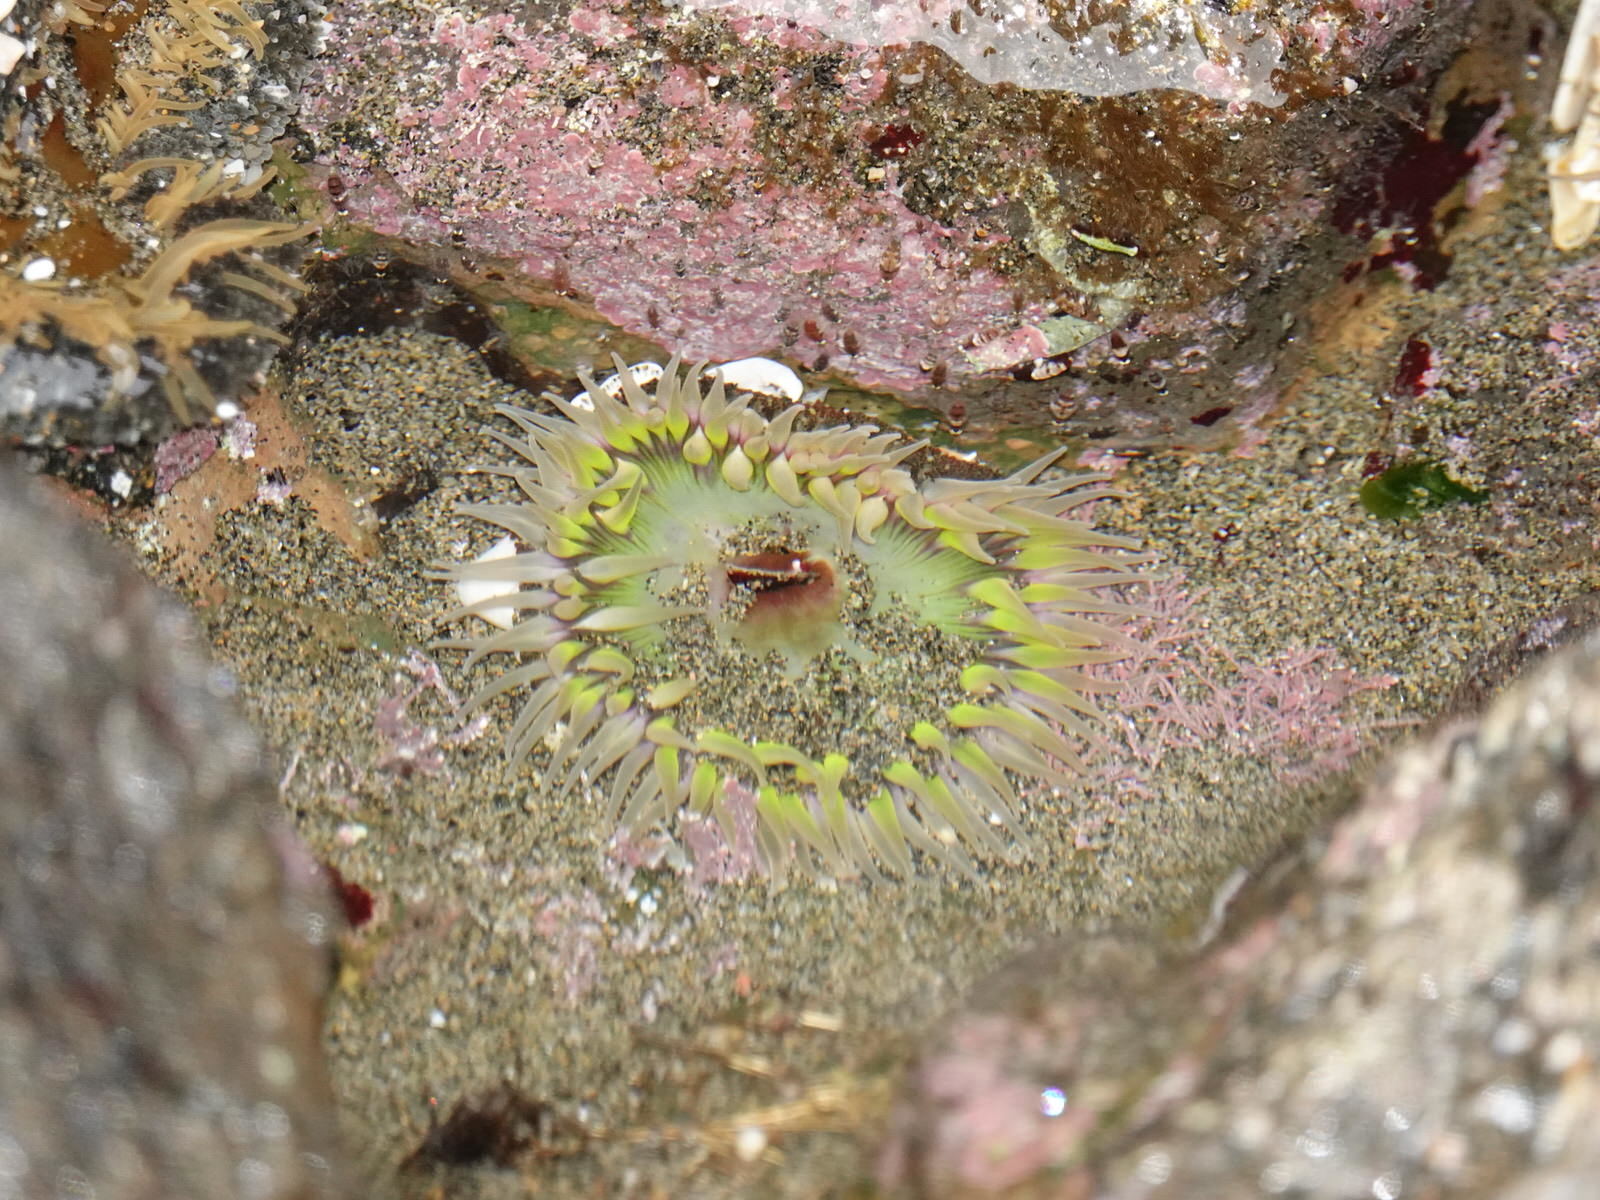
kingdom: Animalia
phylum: Cnidaria
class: Anthozoa
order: Actiniaria
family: Actiniidae
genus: Oulactis
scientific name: Oulactis magna
